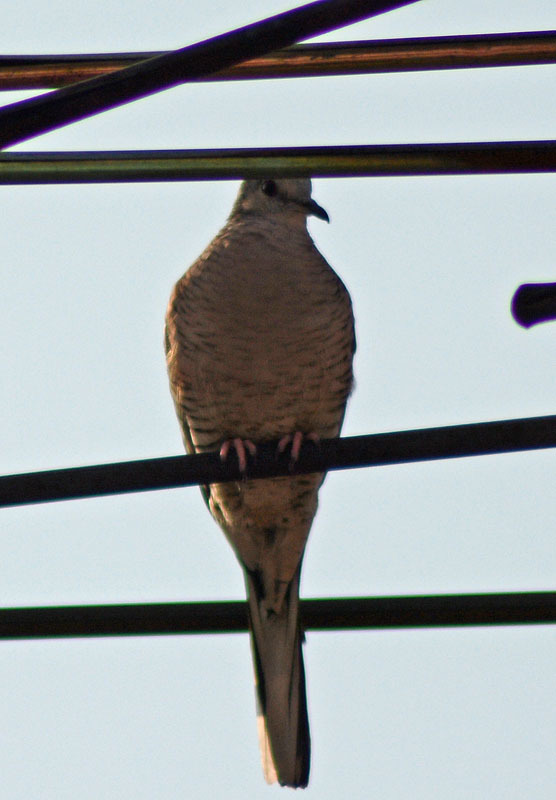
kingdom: Animalia
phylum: Chordata
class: Aves
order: Columbiformes
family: Columbidae
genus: Columbina
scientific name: Columbina inca
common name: Inca dove
